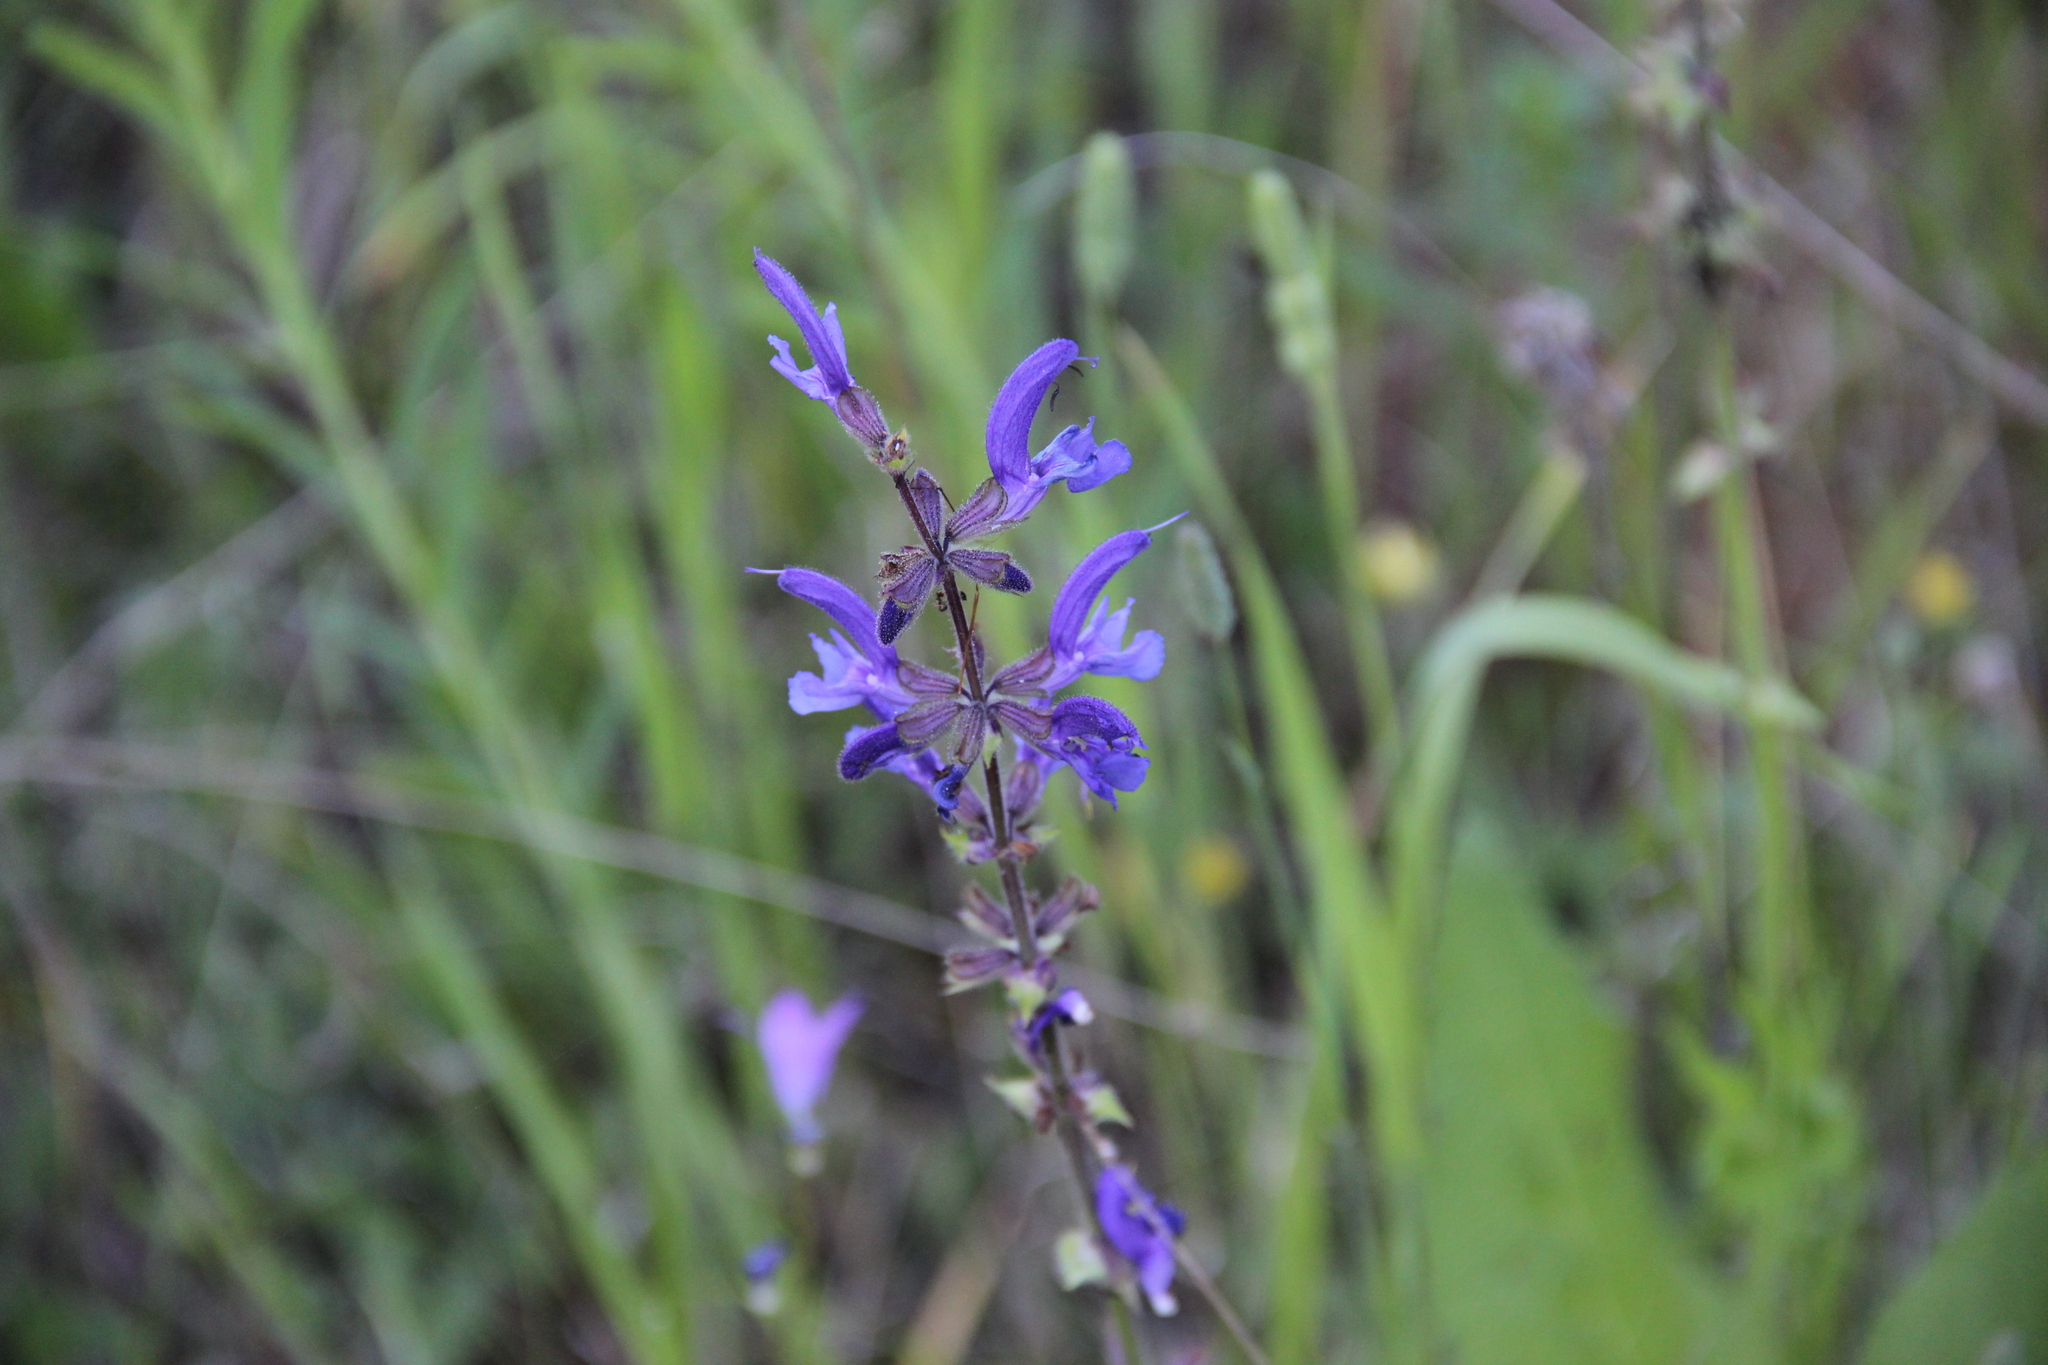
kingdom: Plantae
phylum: Tracheophyta
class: Magnoliopsida
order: Lamiales
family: Lamiaceae
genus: Salvia
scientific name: Salvia pratensis
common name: Meadow sage
